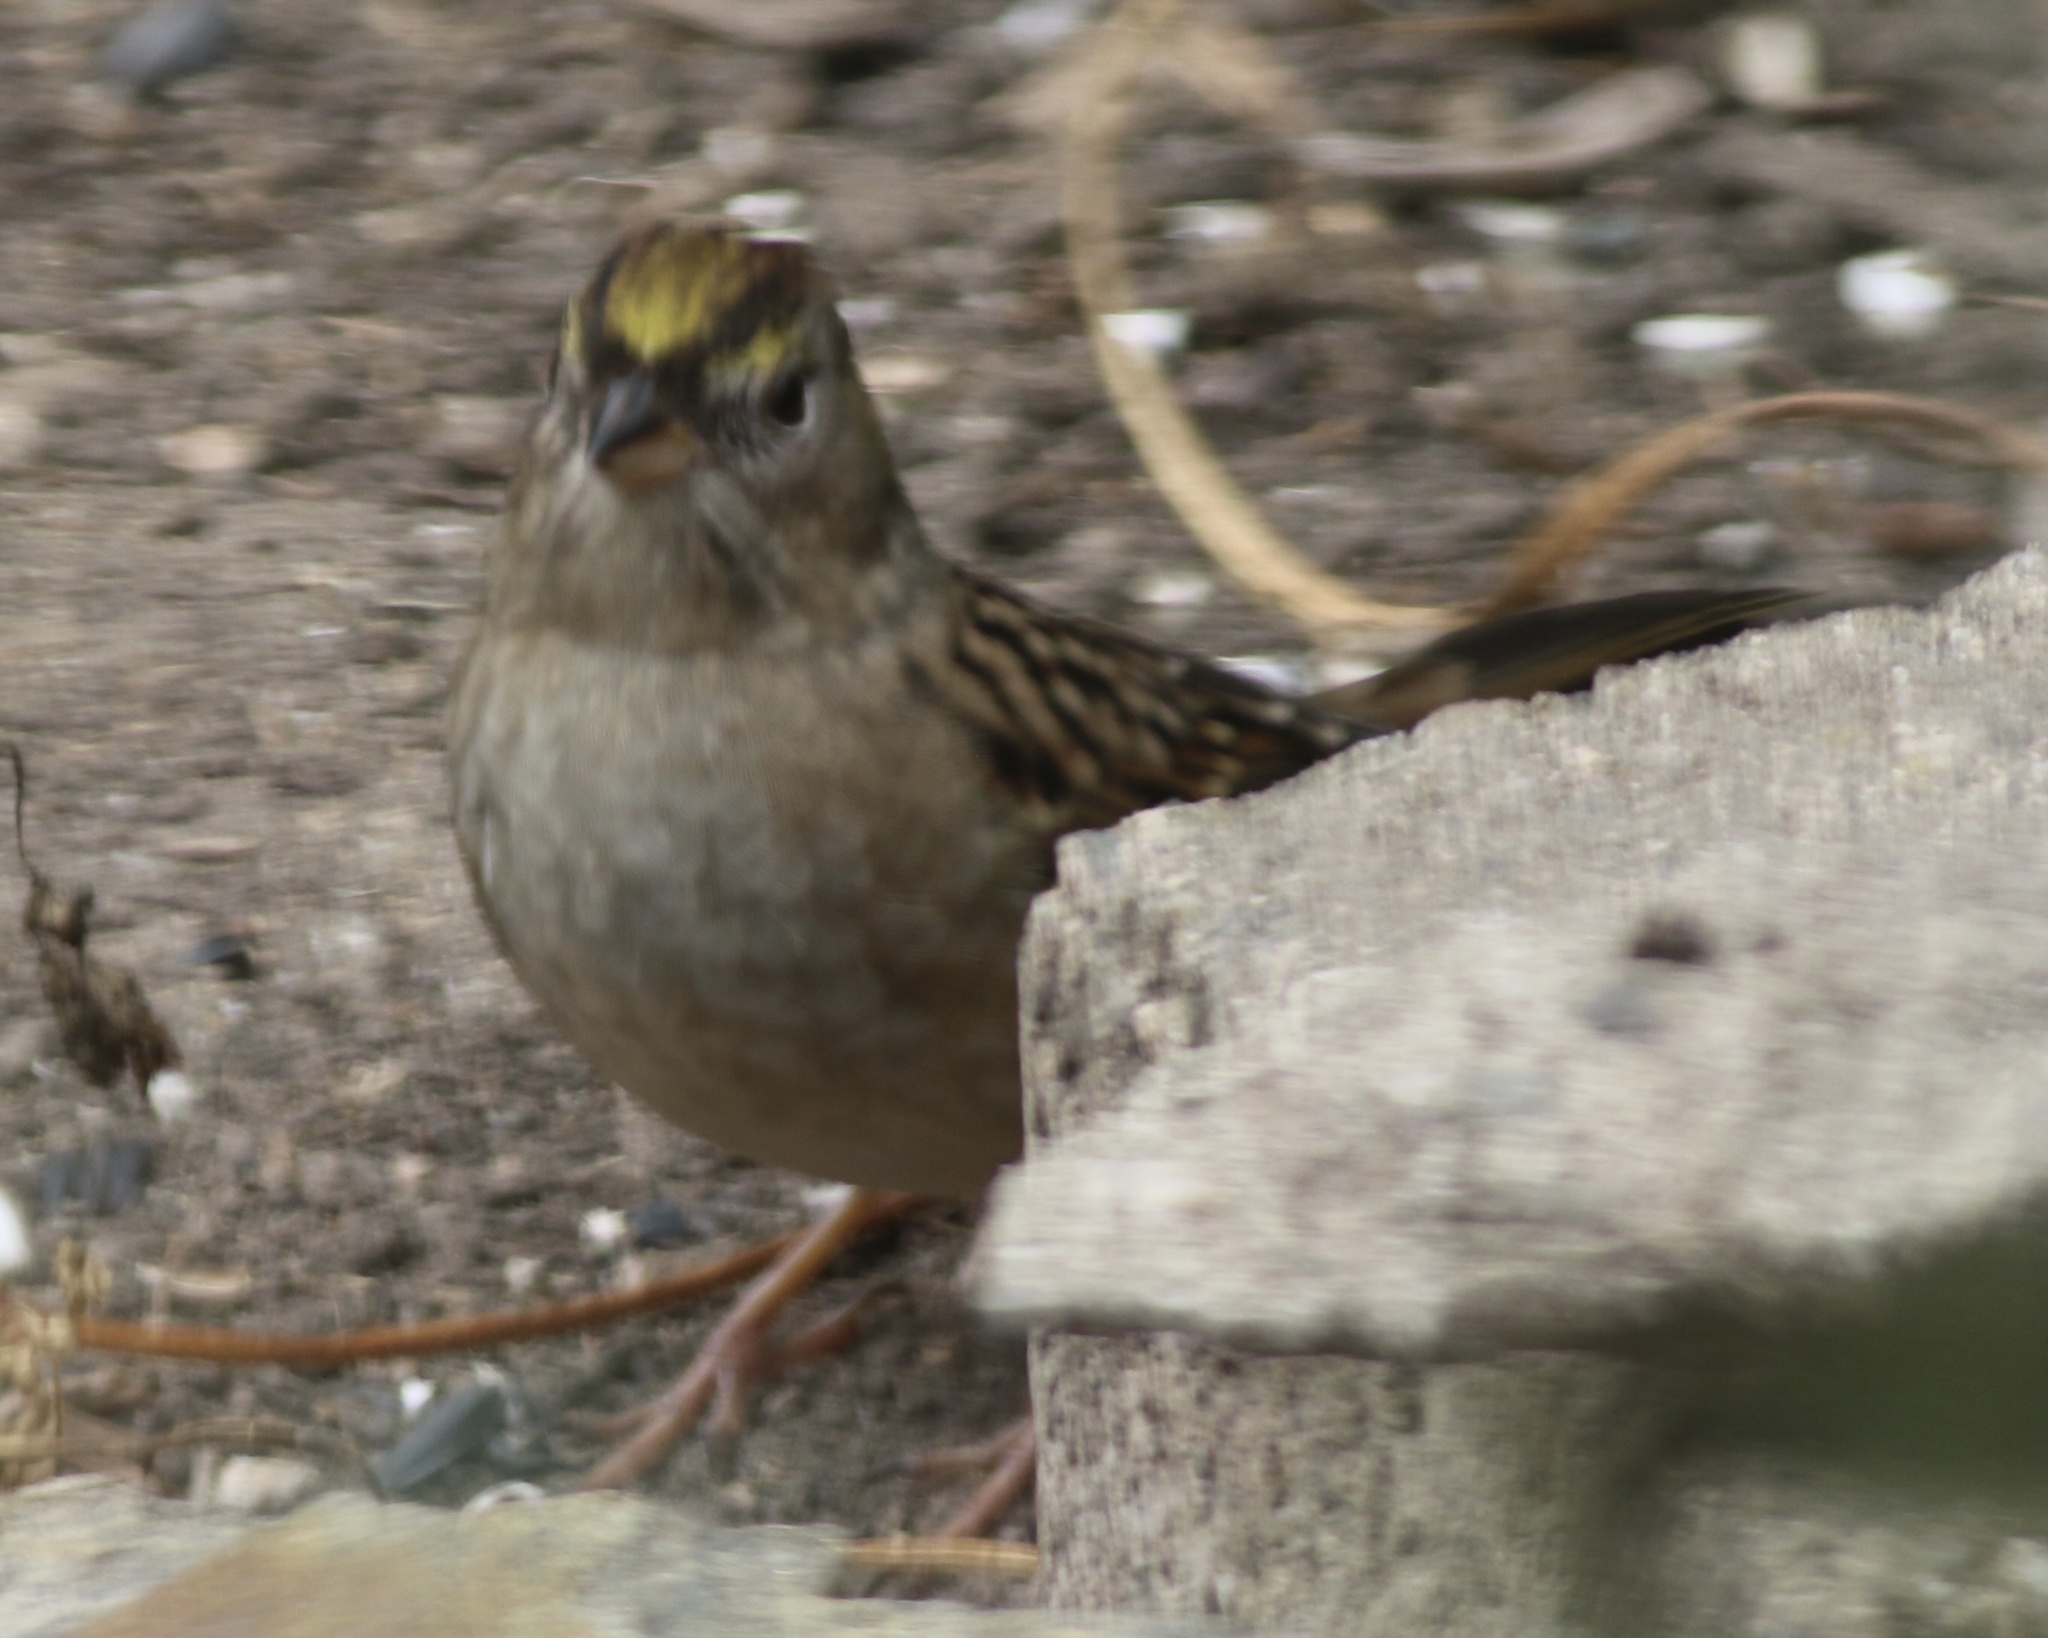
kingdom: Animalia
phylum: Chordata
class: Aves
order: Passeriformes
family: Passerellidae
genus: Zonotrichia
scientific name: Zonotrichia atricapilla
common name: Golden-crowned sparrow
